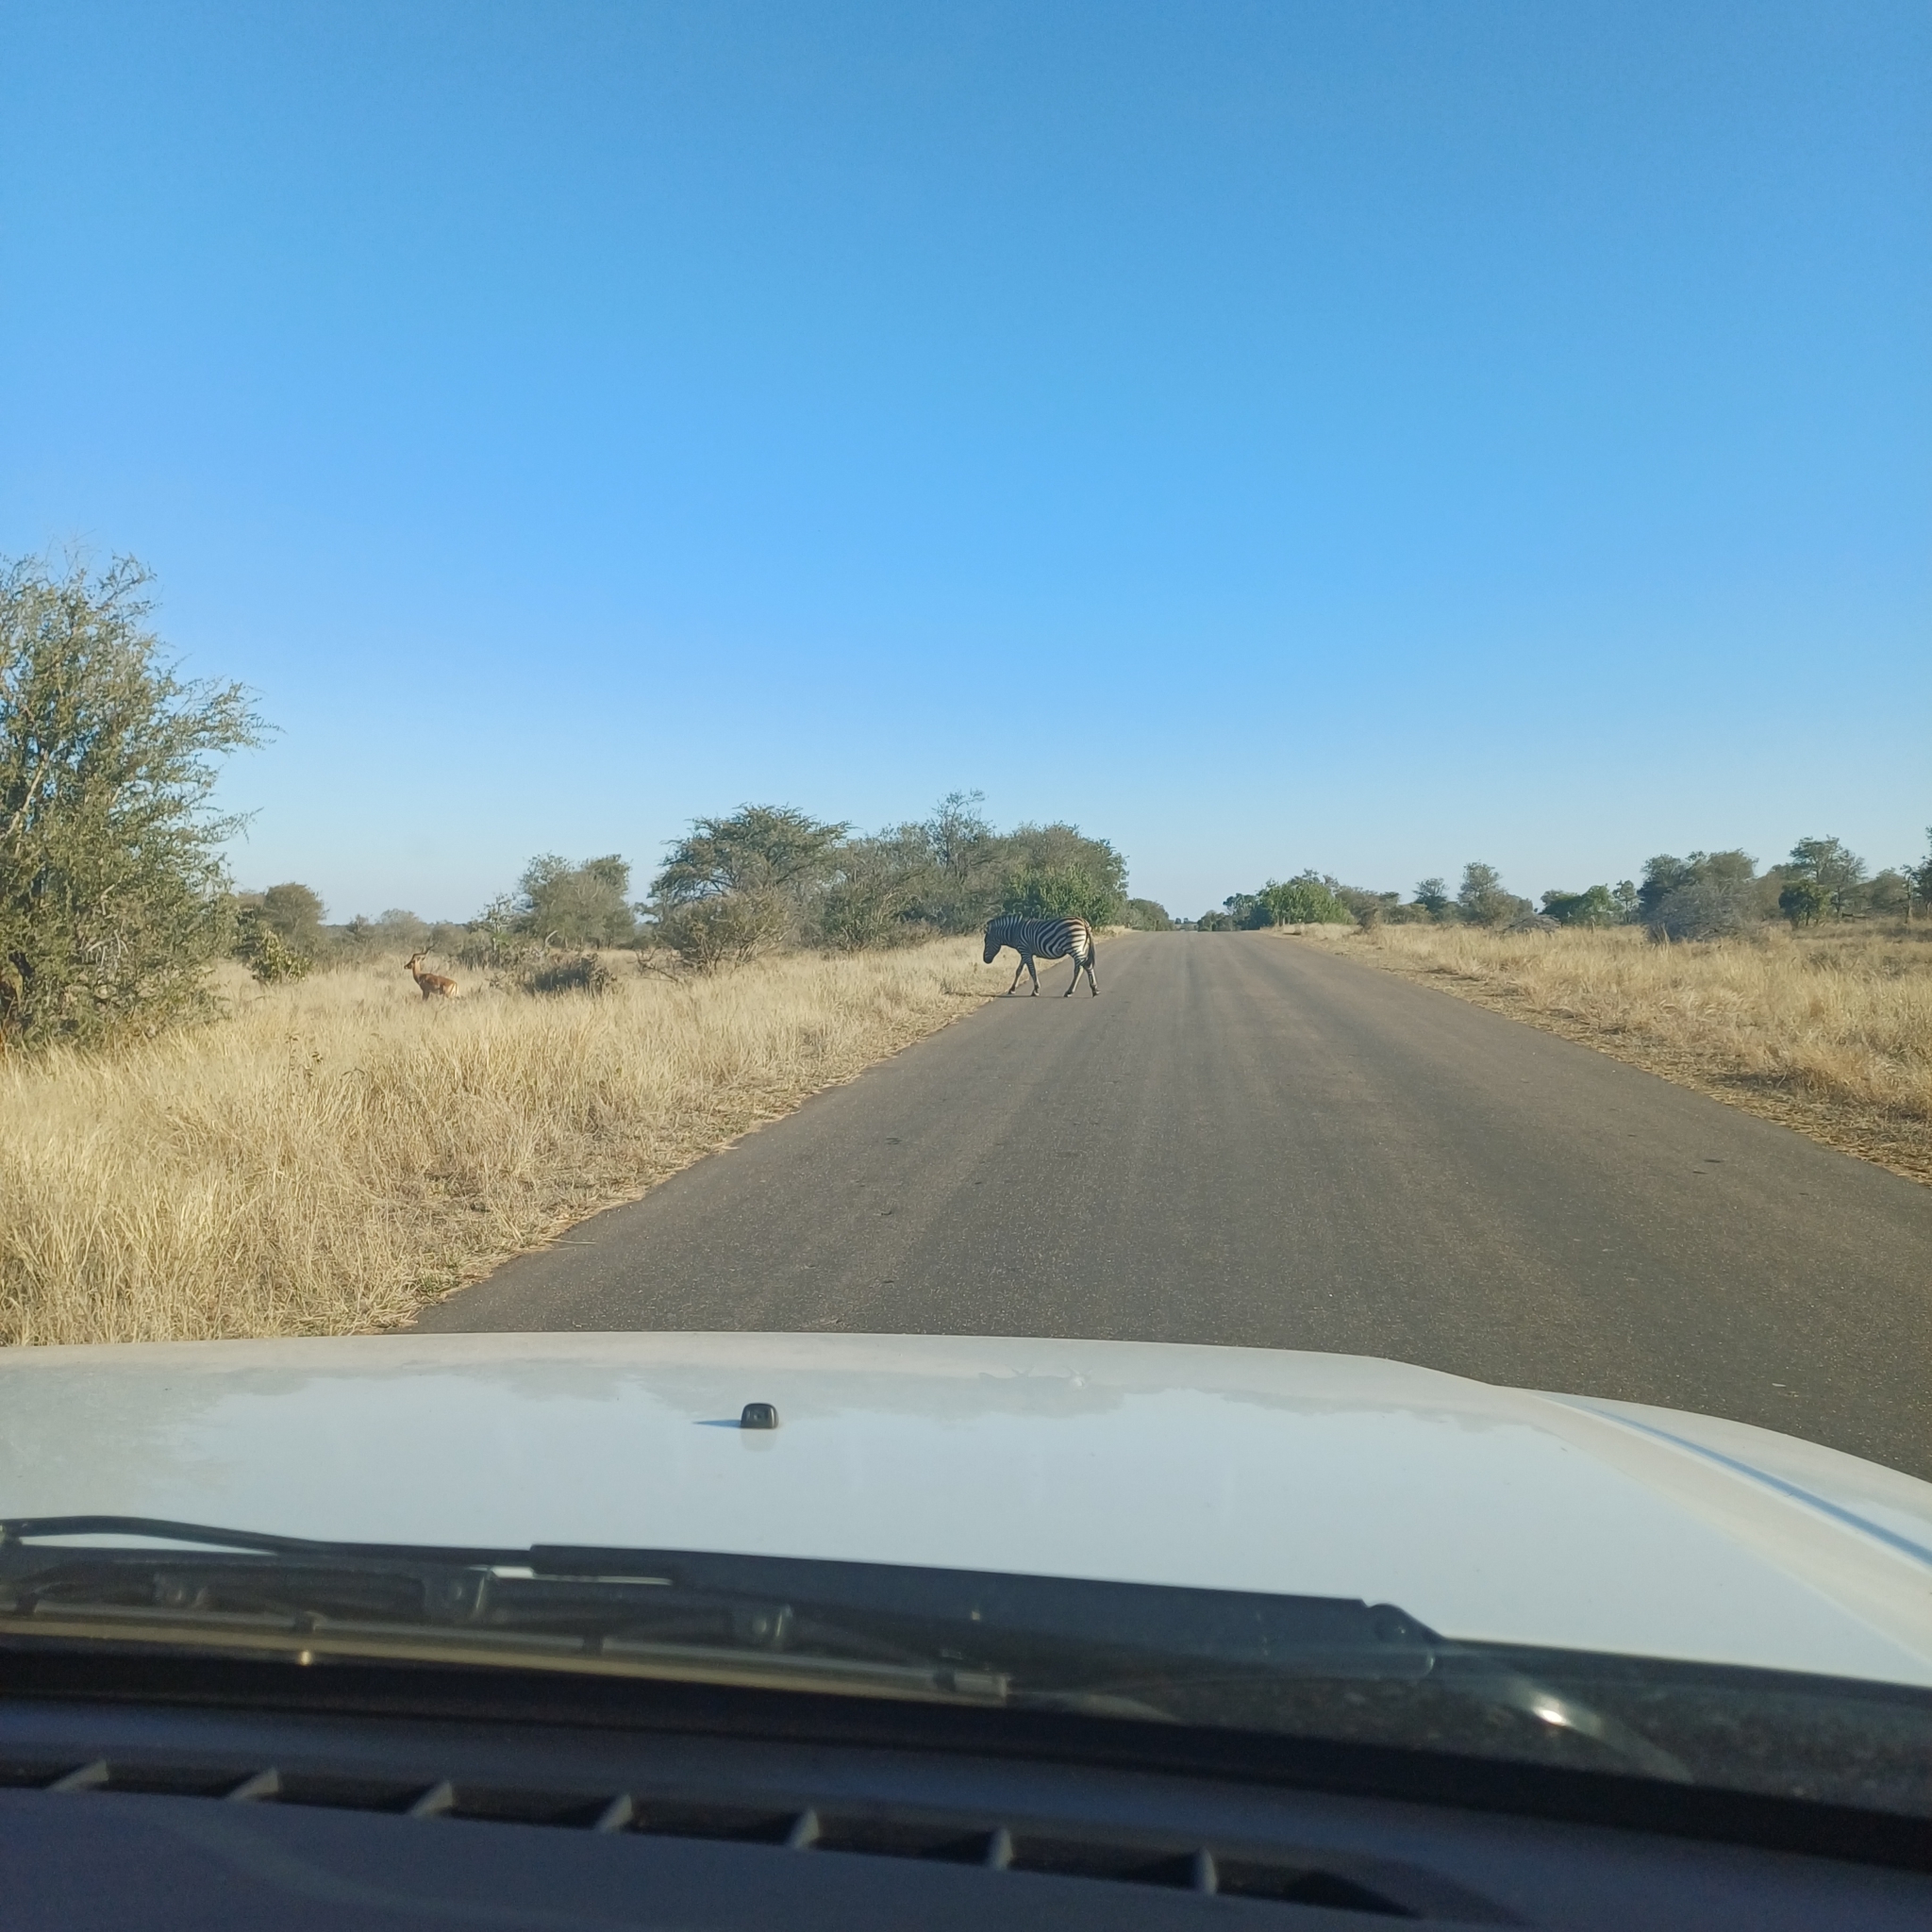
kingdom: Animalia
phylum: Chordata
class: Mammalia
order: Perissodactyla
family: Equidae
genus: Equus
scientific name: Equus quagga
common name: Plains zebra
